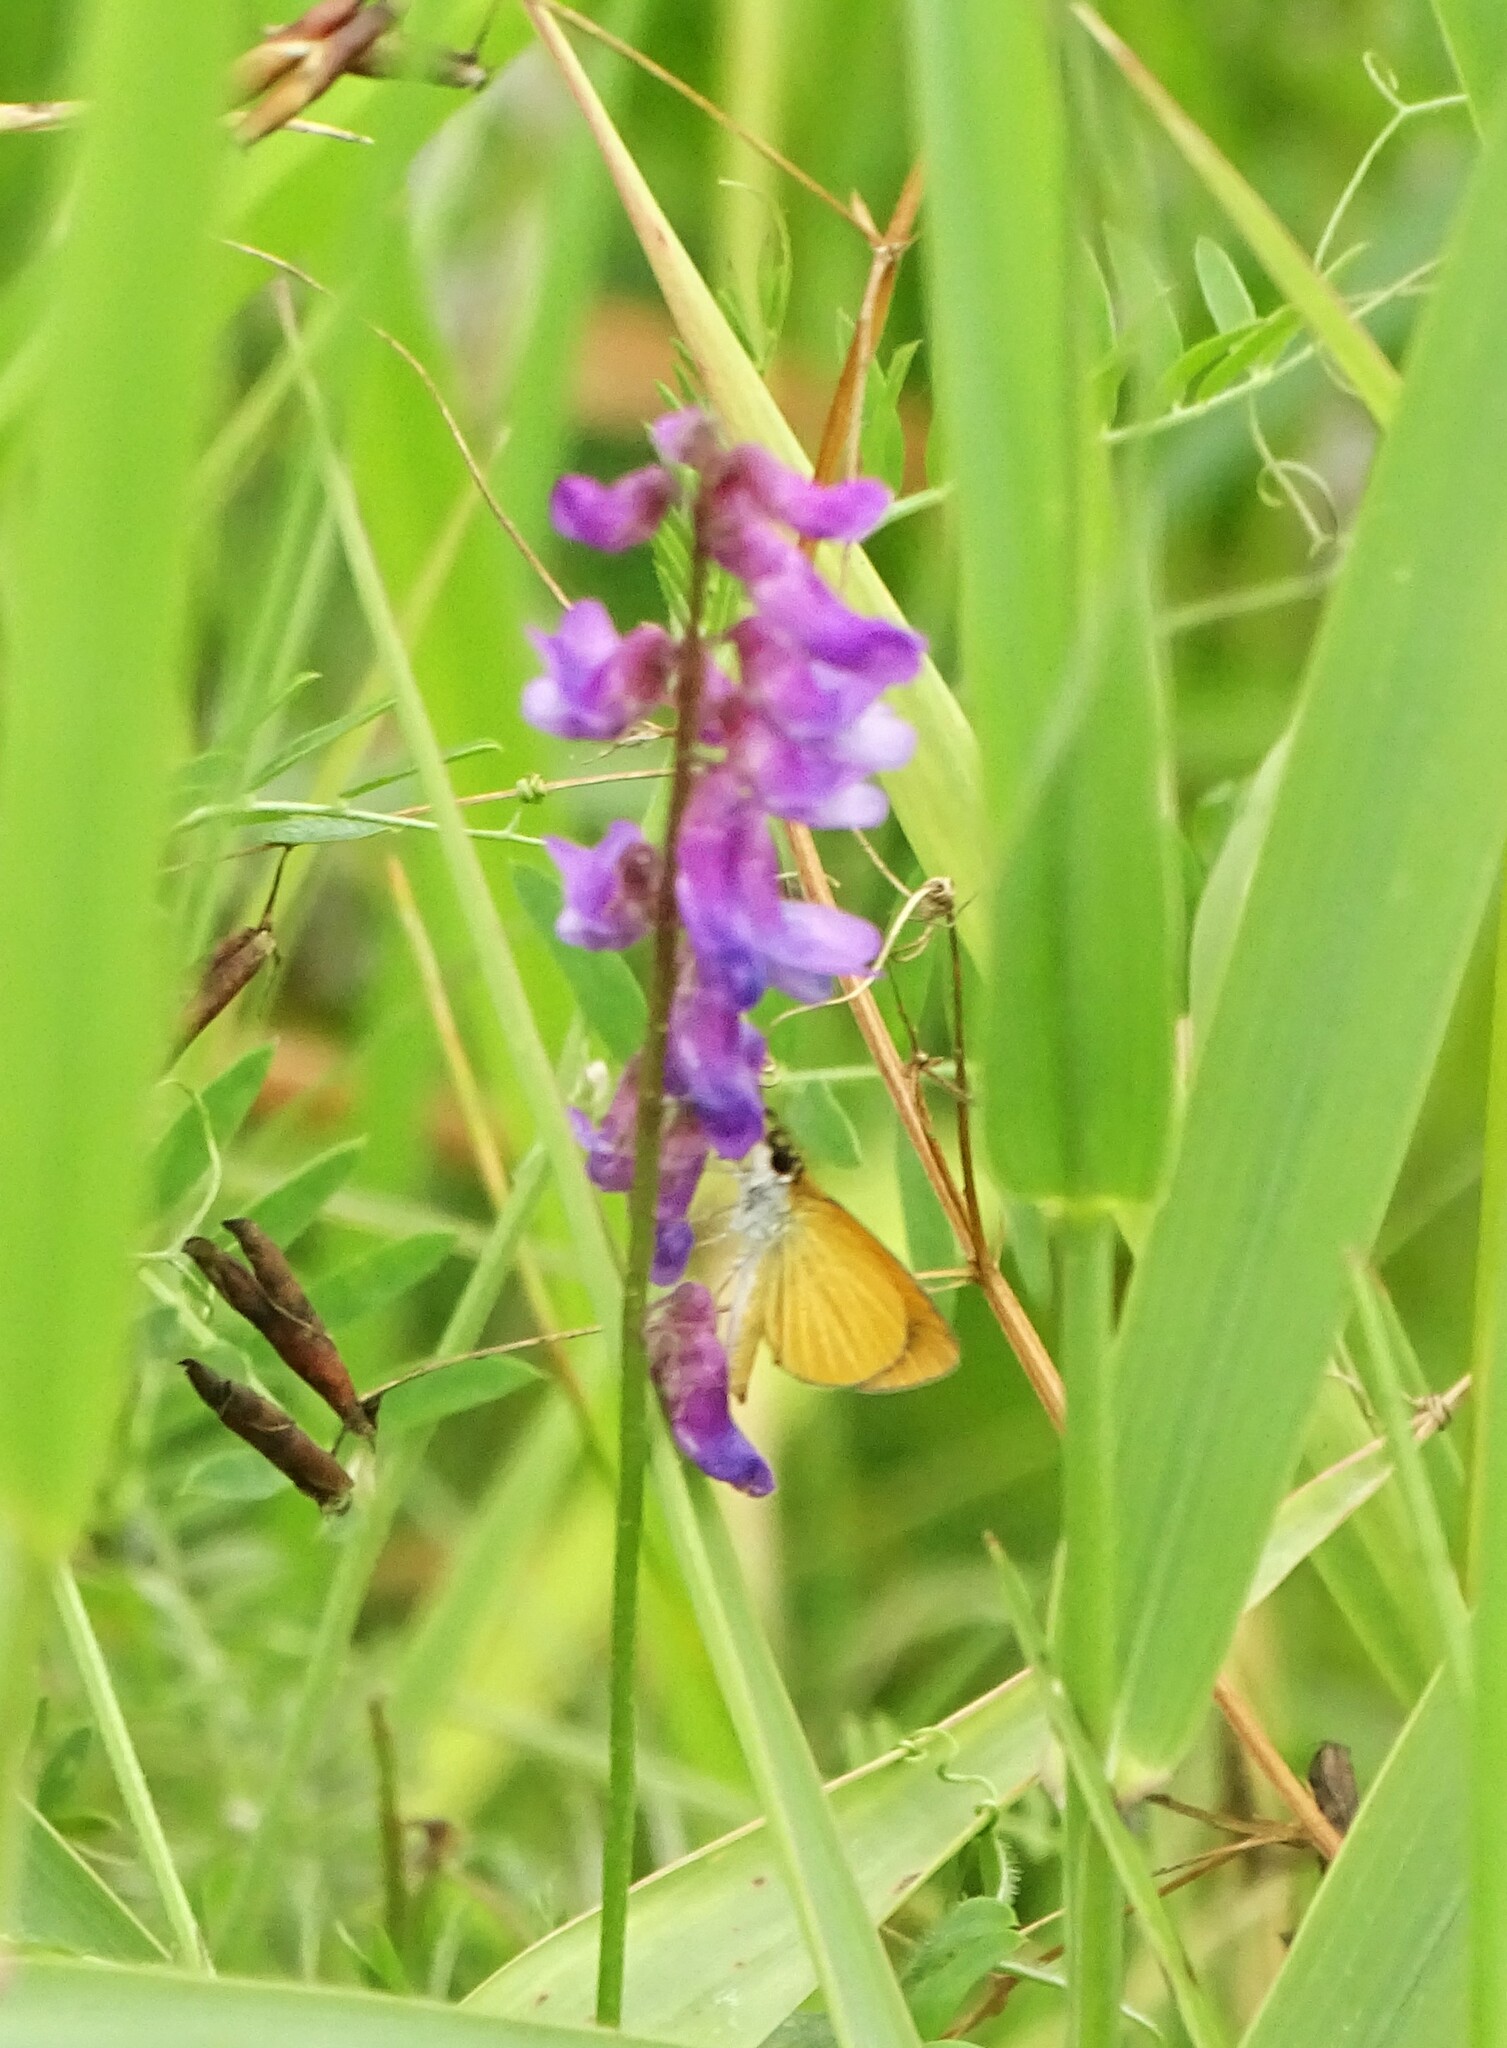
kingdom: Animalia
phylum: Arthropoda
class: Insecta
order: Lepidoptera
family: Hesperiidae
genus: Ancyloxypha
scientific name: Ancyloxypha numitor
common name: Least skipper
